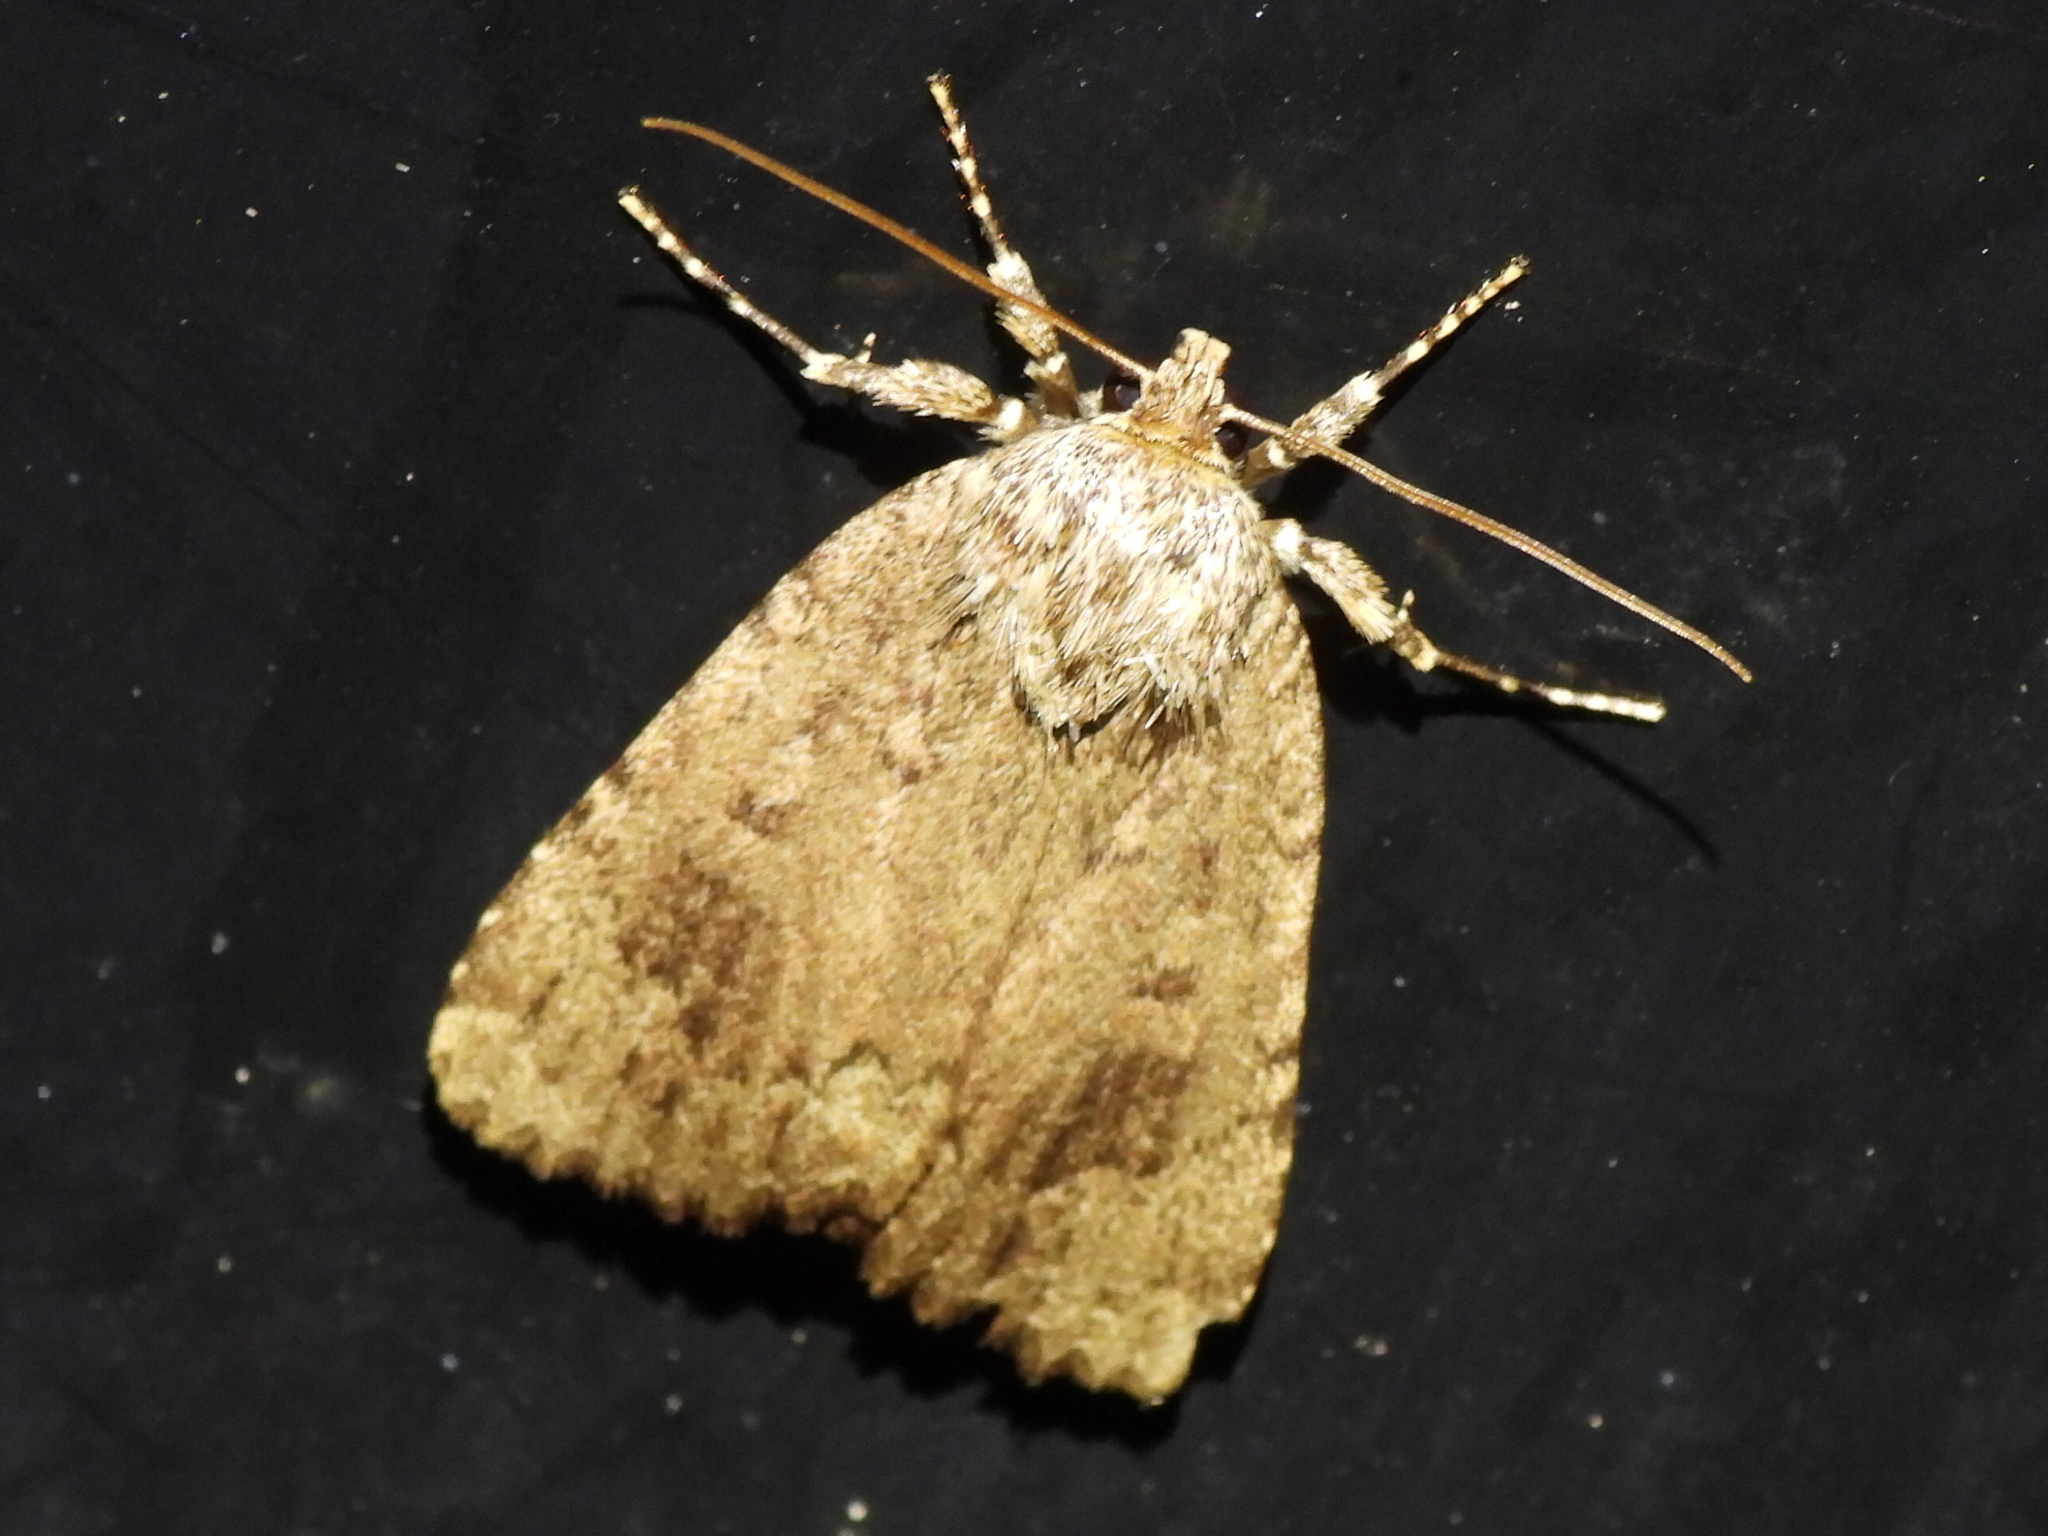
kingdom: Animalia
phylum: Arthropoda
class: Insecta
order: Lepidoptera
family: Noctuidae
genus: Amphipyra
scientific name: Amphipyra pyramidoides
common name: American copper underwing
